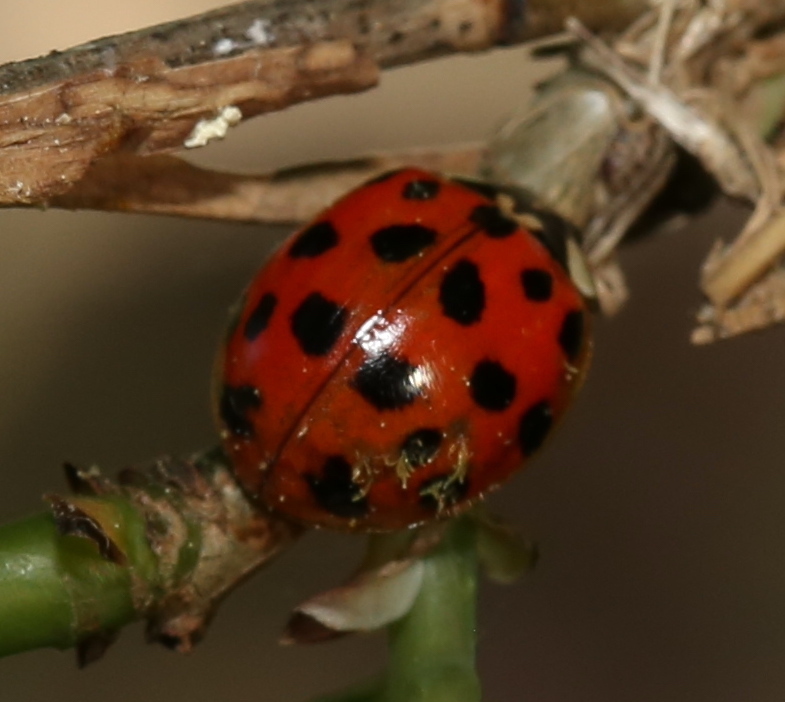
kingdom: Animalia
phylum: Arthropoda
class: Insecta
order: Coleoptera
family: Coccinellidae
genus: Harmonia
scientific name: Harmonia axyridis
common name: Harlequin ladybird
